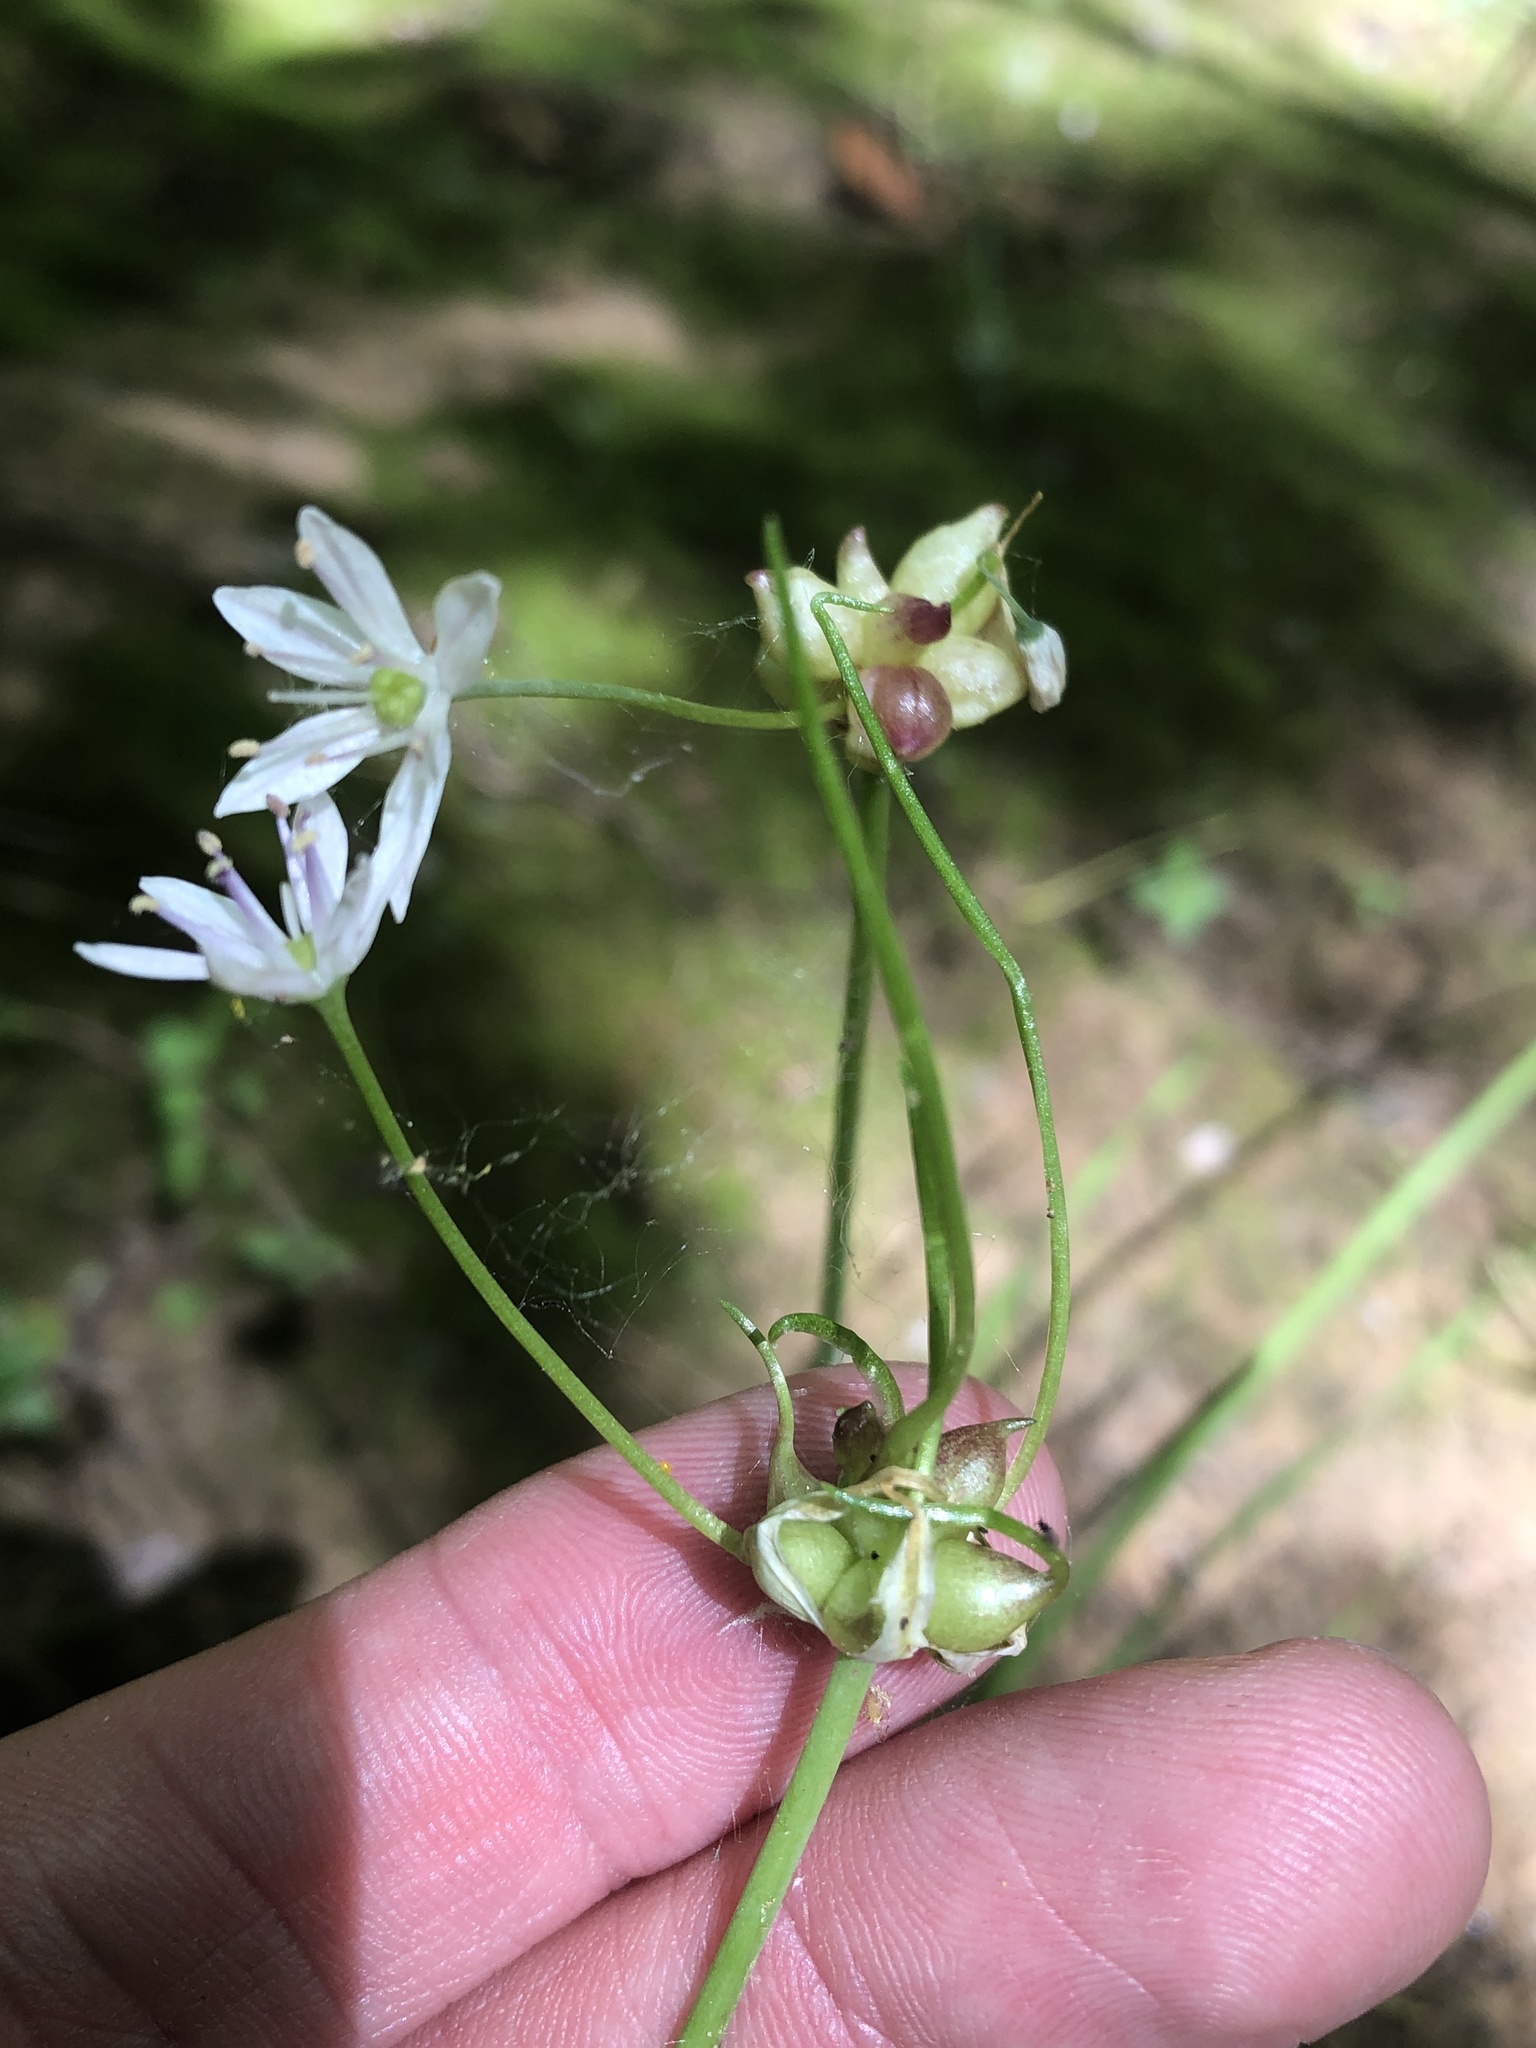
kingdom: Plantae
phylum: Tracheophyta
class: Liliopsida
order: Asparagales
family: Amaryllidaceae
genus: Allium
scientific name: Allium canadense
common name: Meadow garlic
